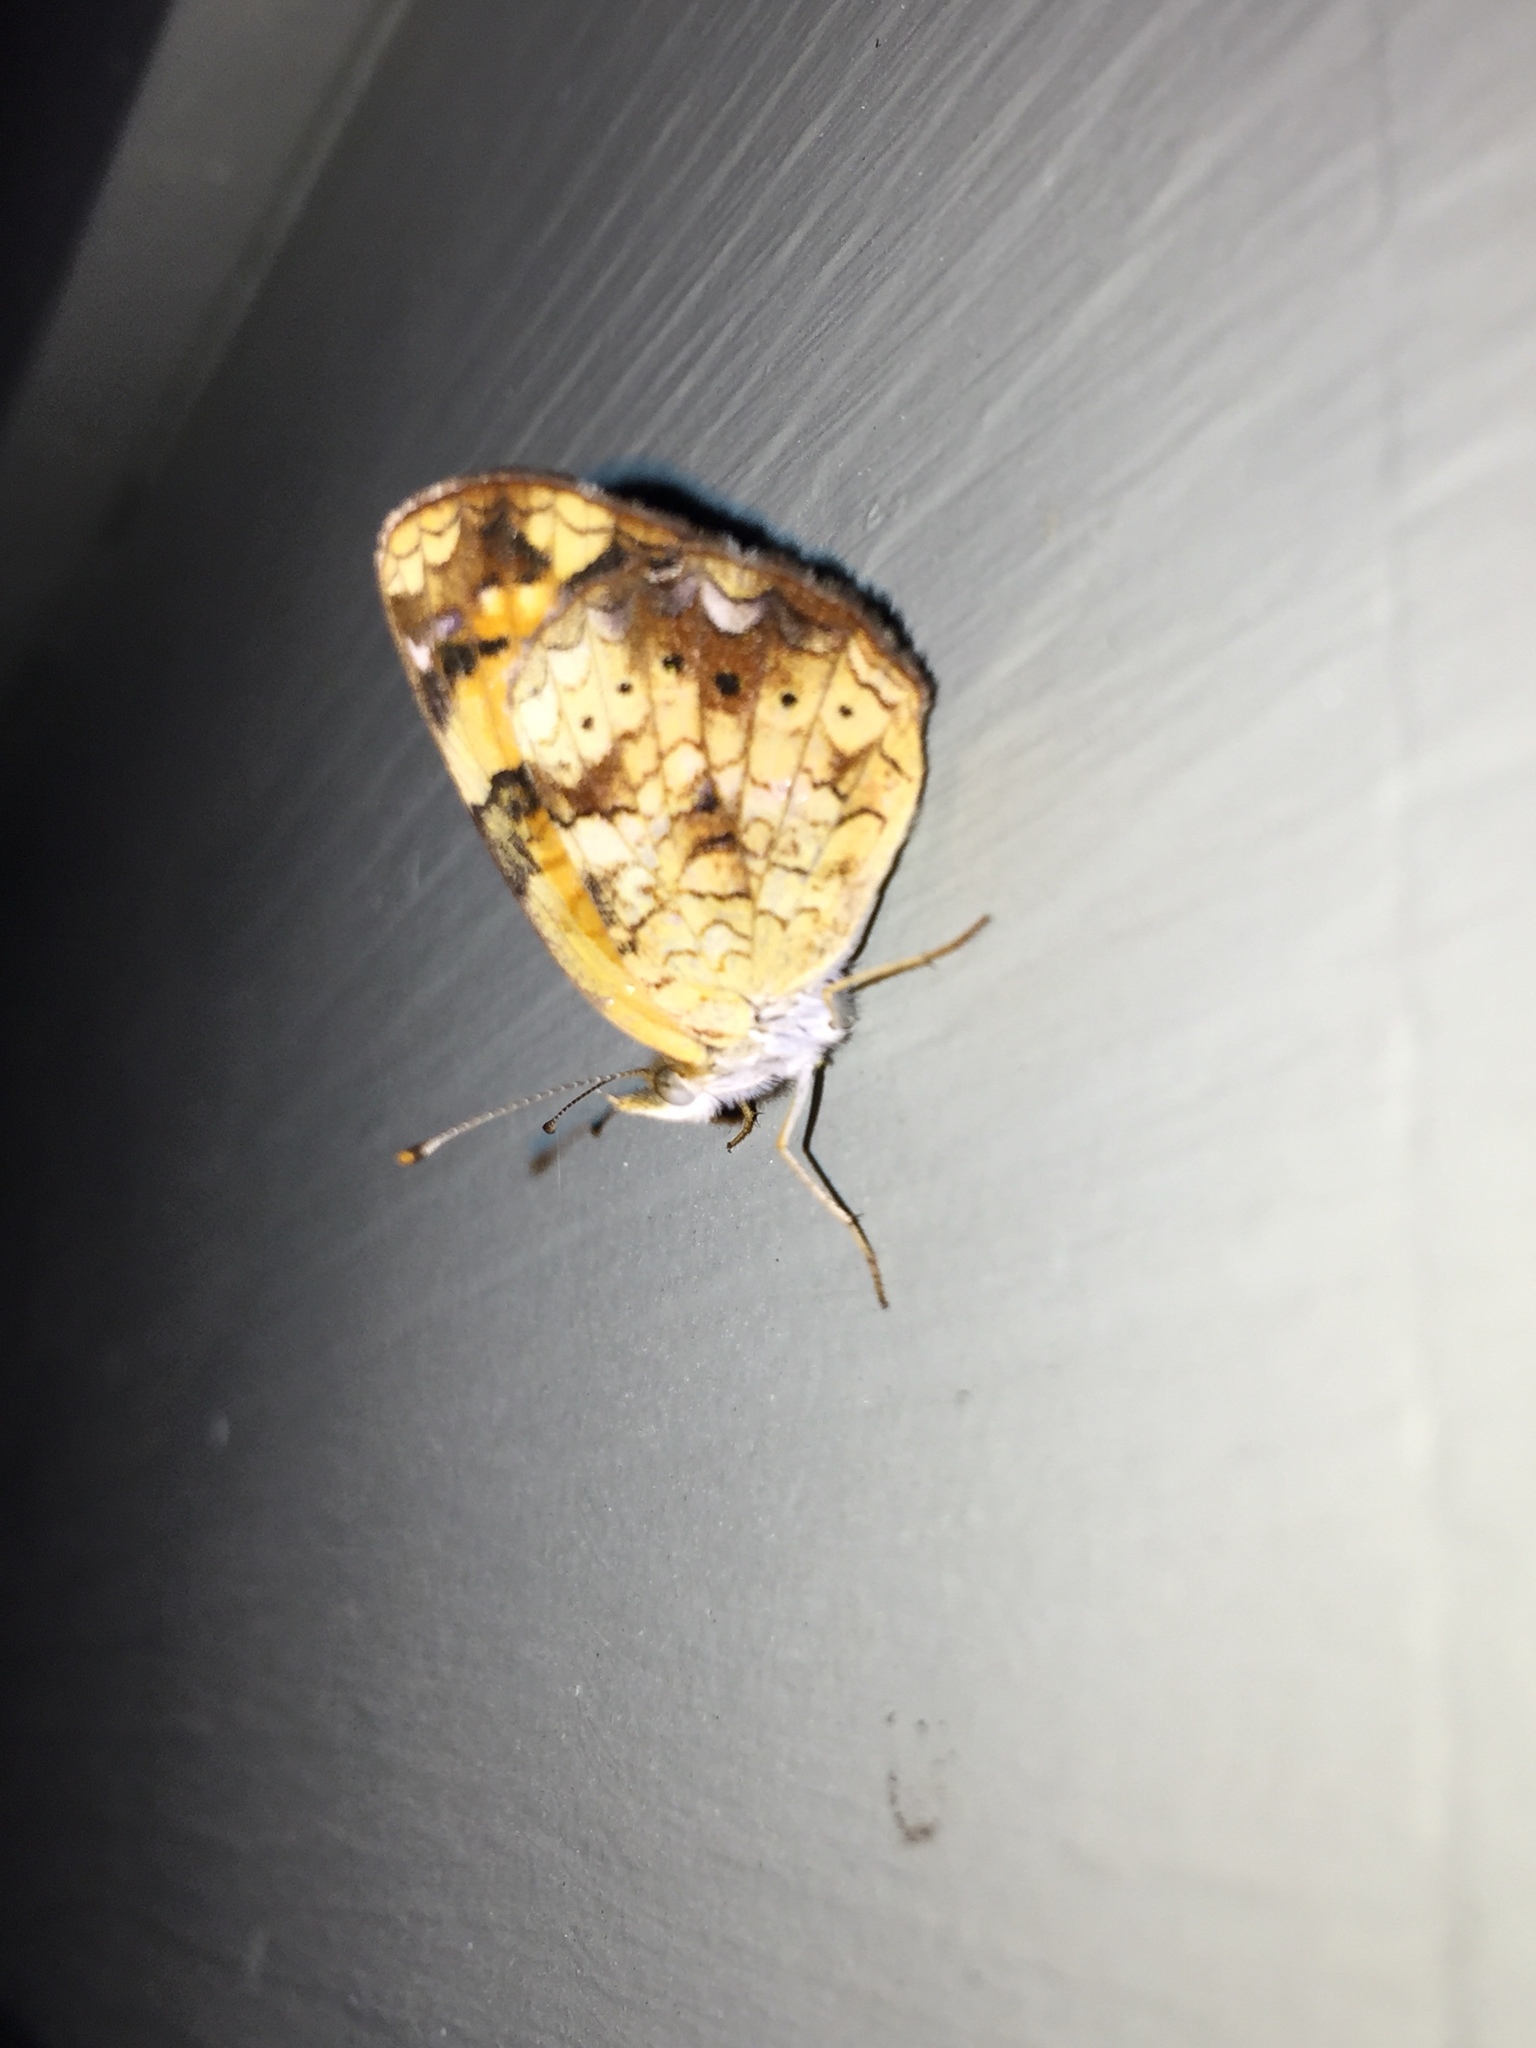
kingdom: Animalia
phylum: Arthropoda
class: Insecta
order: Lepidoptera
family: Nymphalidae
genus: Phyciodes
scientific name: Phyciodes tharos
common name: Pearl crescent
